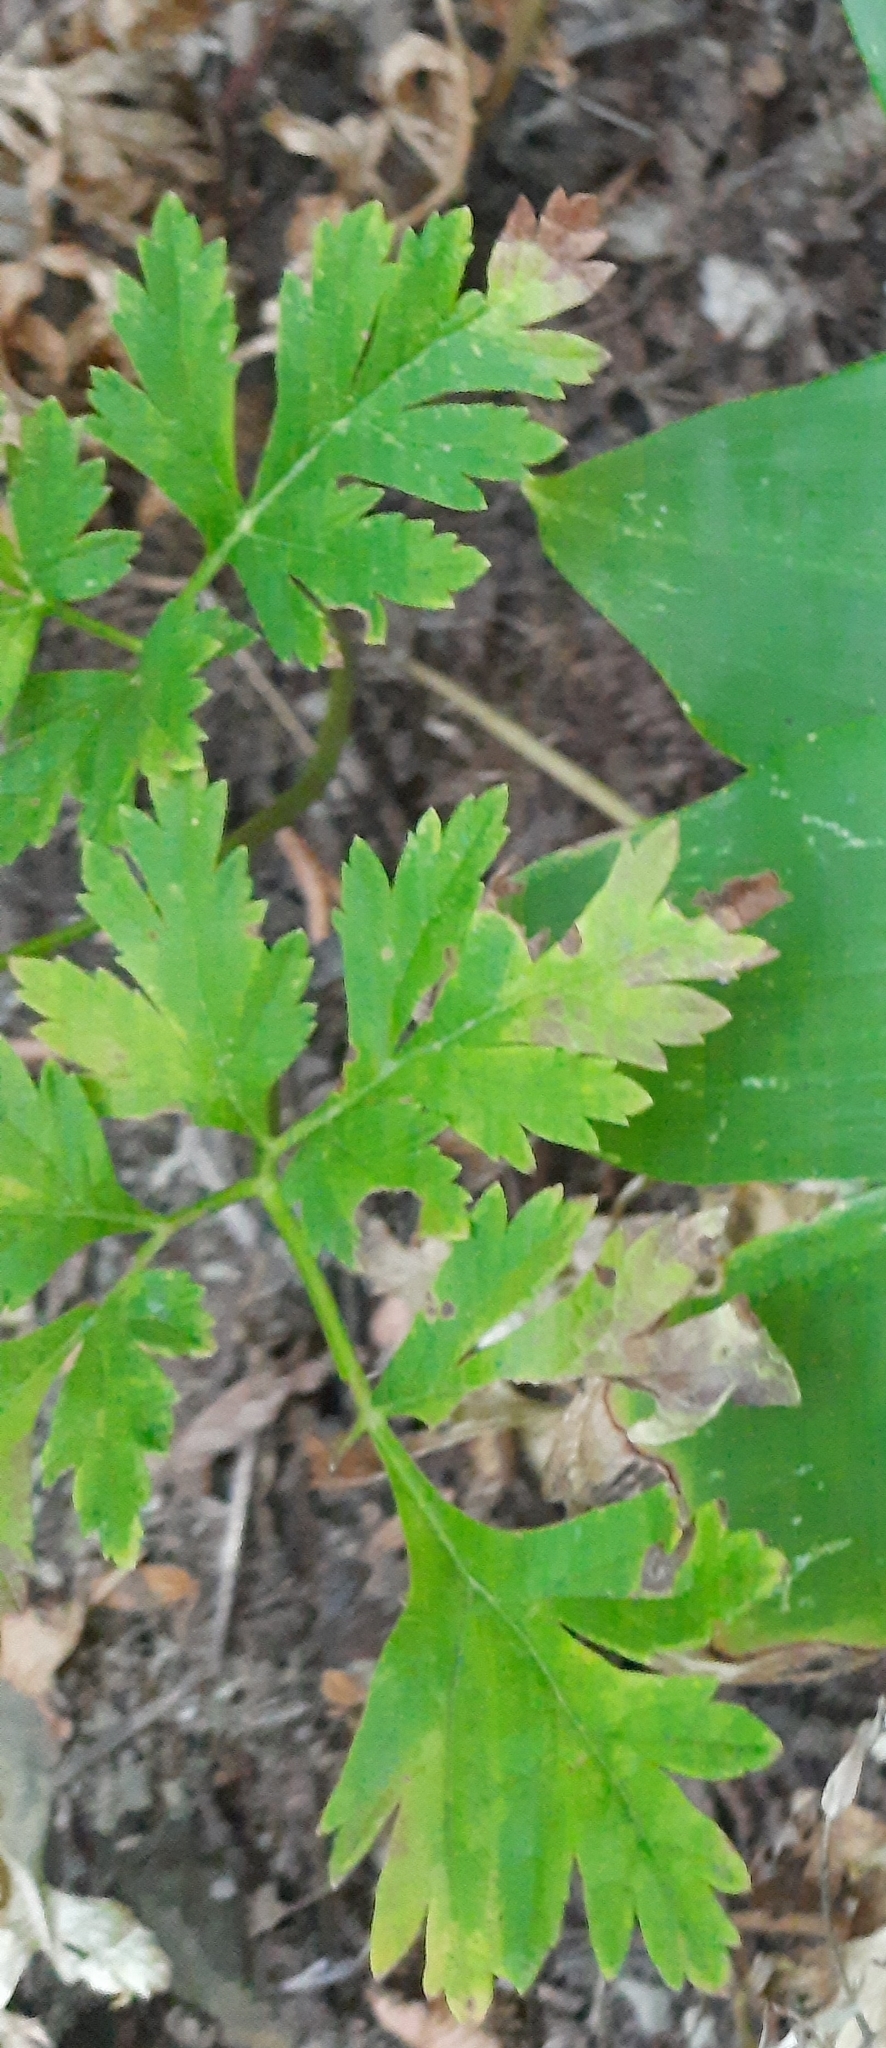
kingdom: Plantae
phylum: Tracheophyta
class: Magnoliopsida
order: Apiales
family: Apiaceae
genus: Physospermum
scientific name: Physospermum cornubiense
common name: Bladderseed
